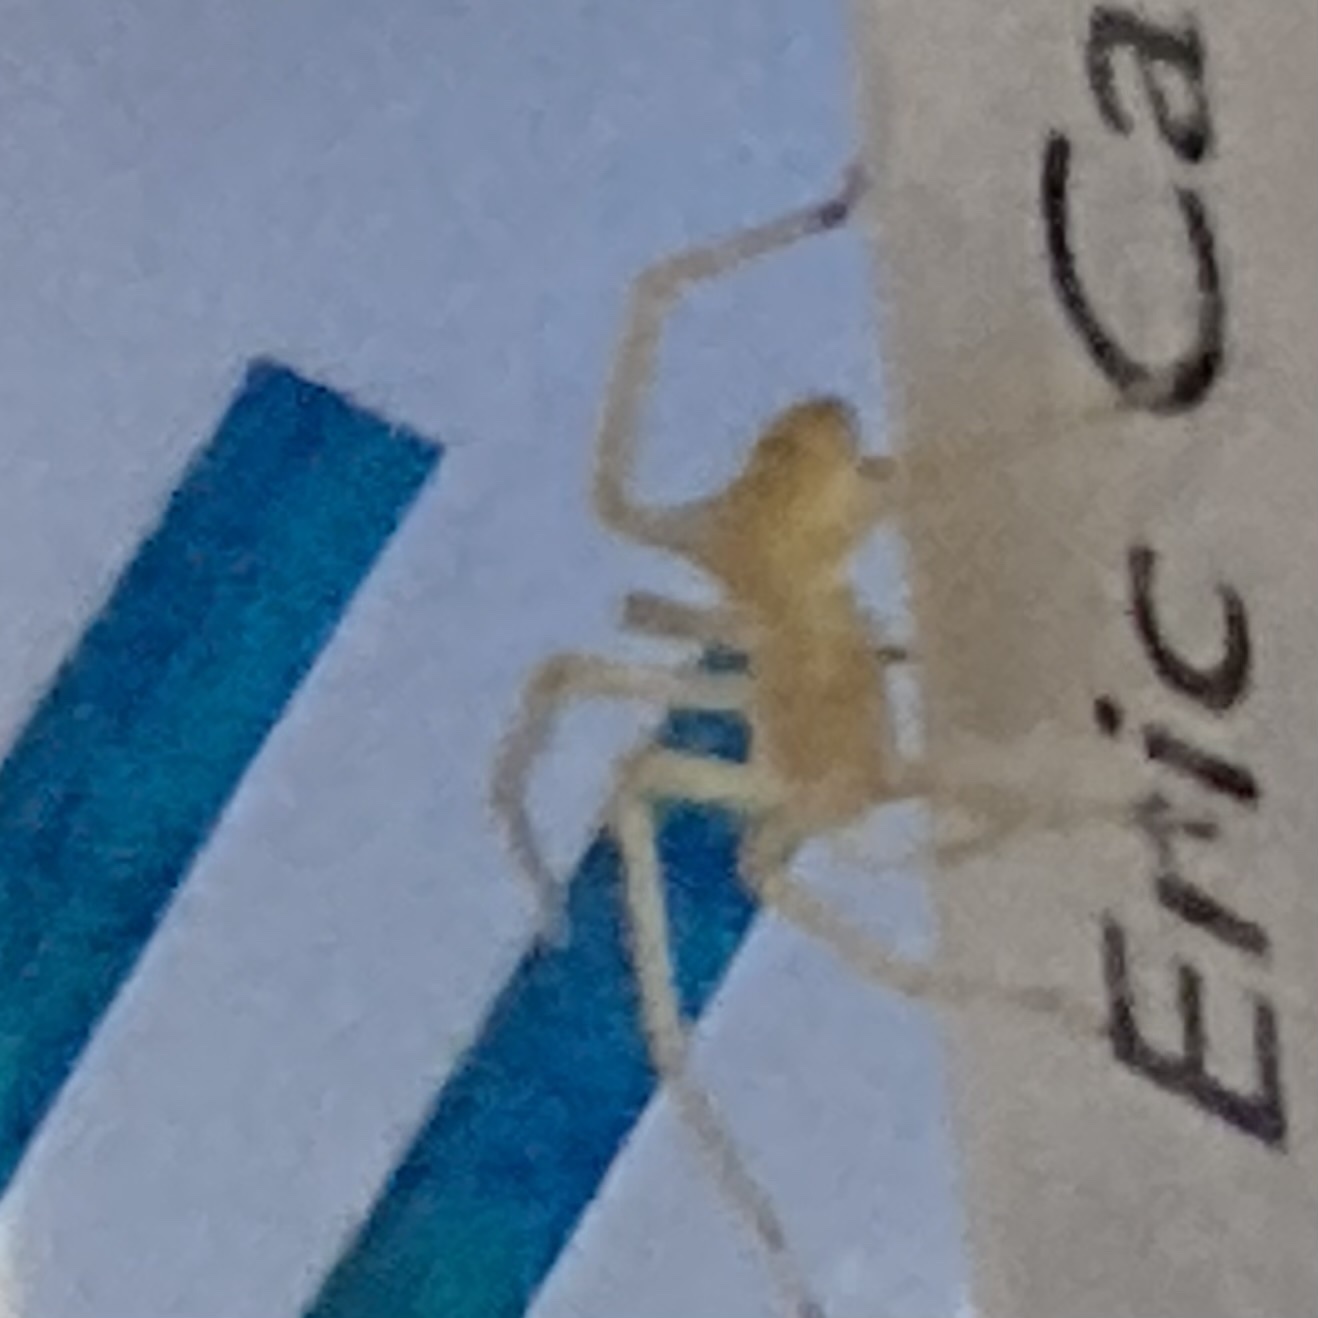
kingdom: Animalia
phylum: Arthropoda
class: Arachnida
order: Araneae
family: Cheiracanthiidae
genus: Cheiracanthium
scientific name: Cheiracanthium mildei
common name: Northern yellow sac spider
